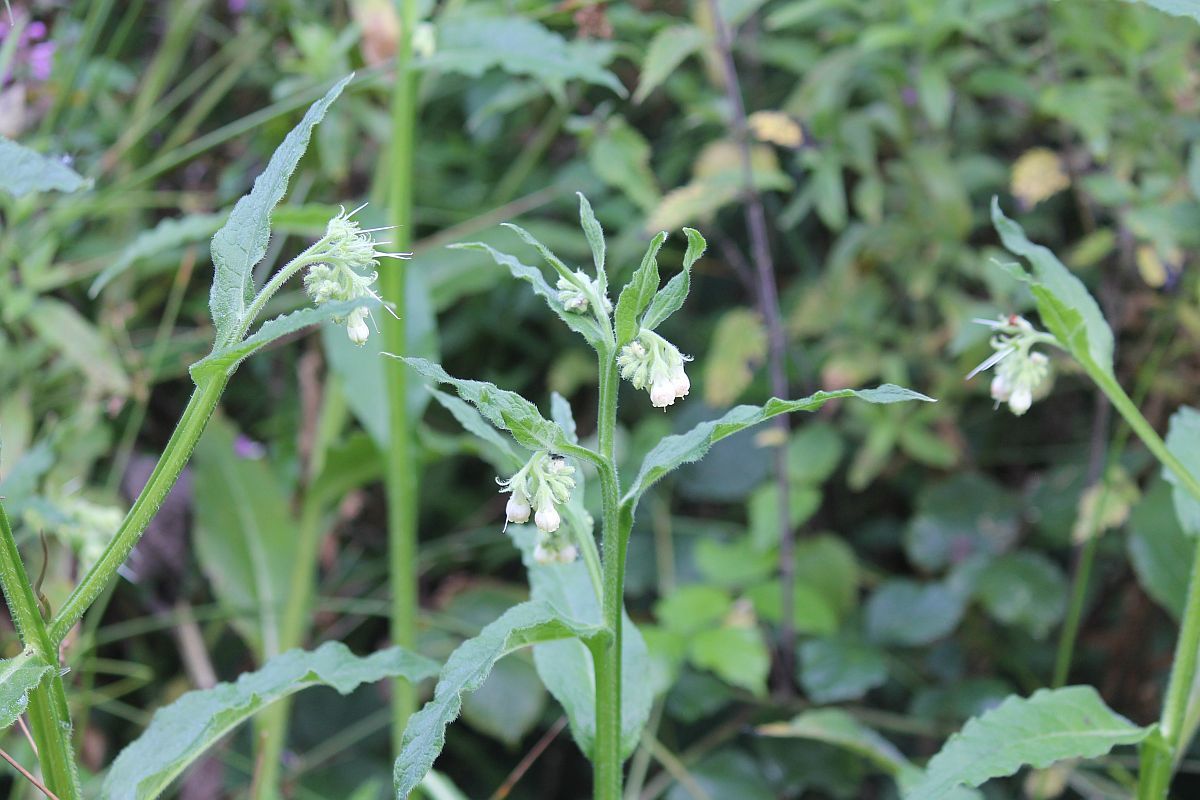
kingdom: Plantae
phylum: Tracheophyta
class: Magnoliopsida
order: Boraginales
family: Boraginaceae
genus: Symphytum
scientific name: Symphytum officinale
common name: Common comfrey
